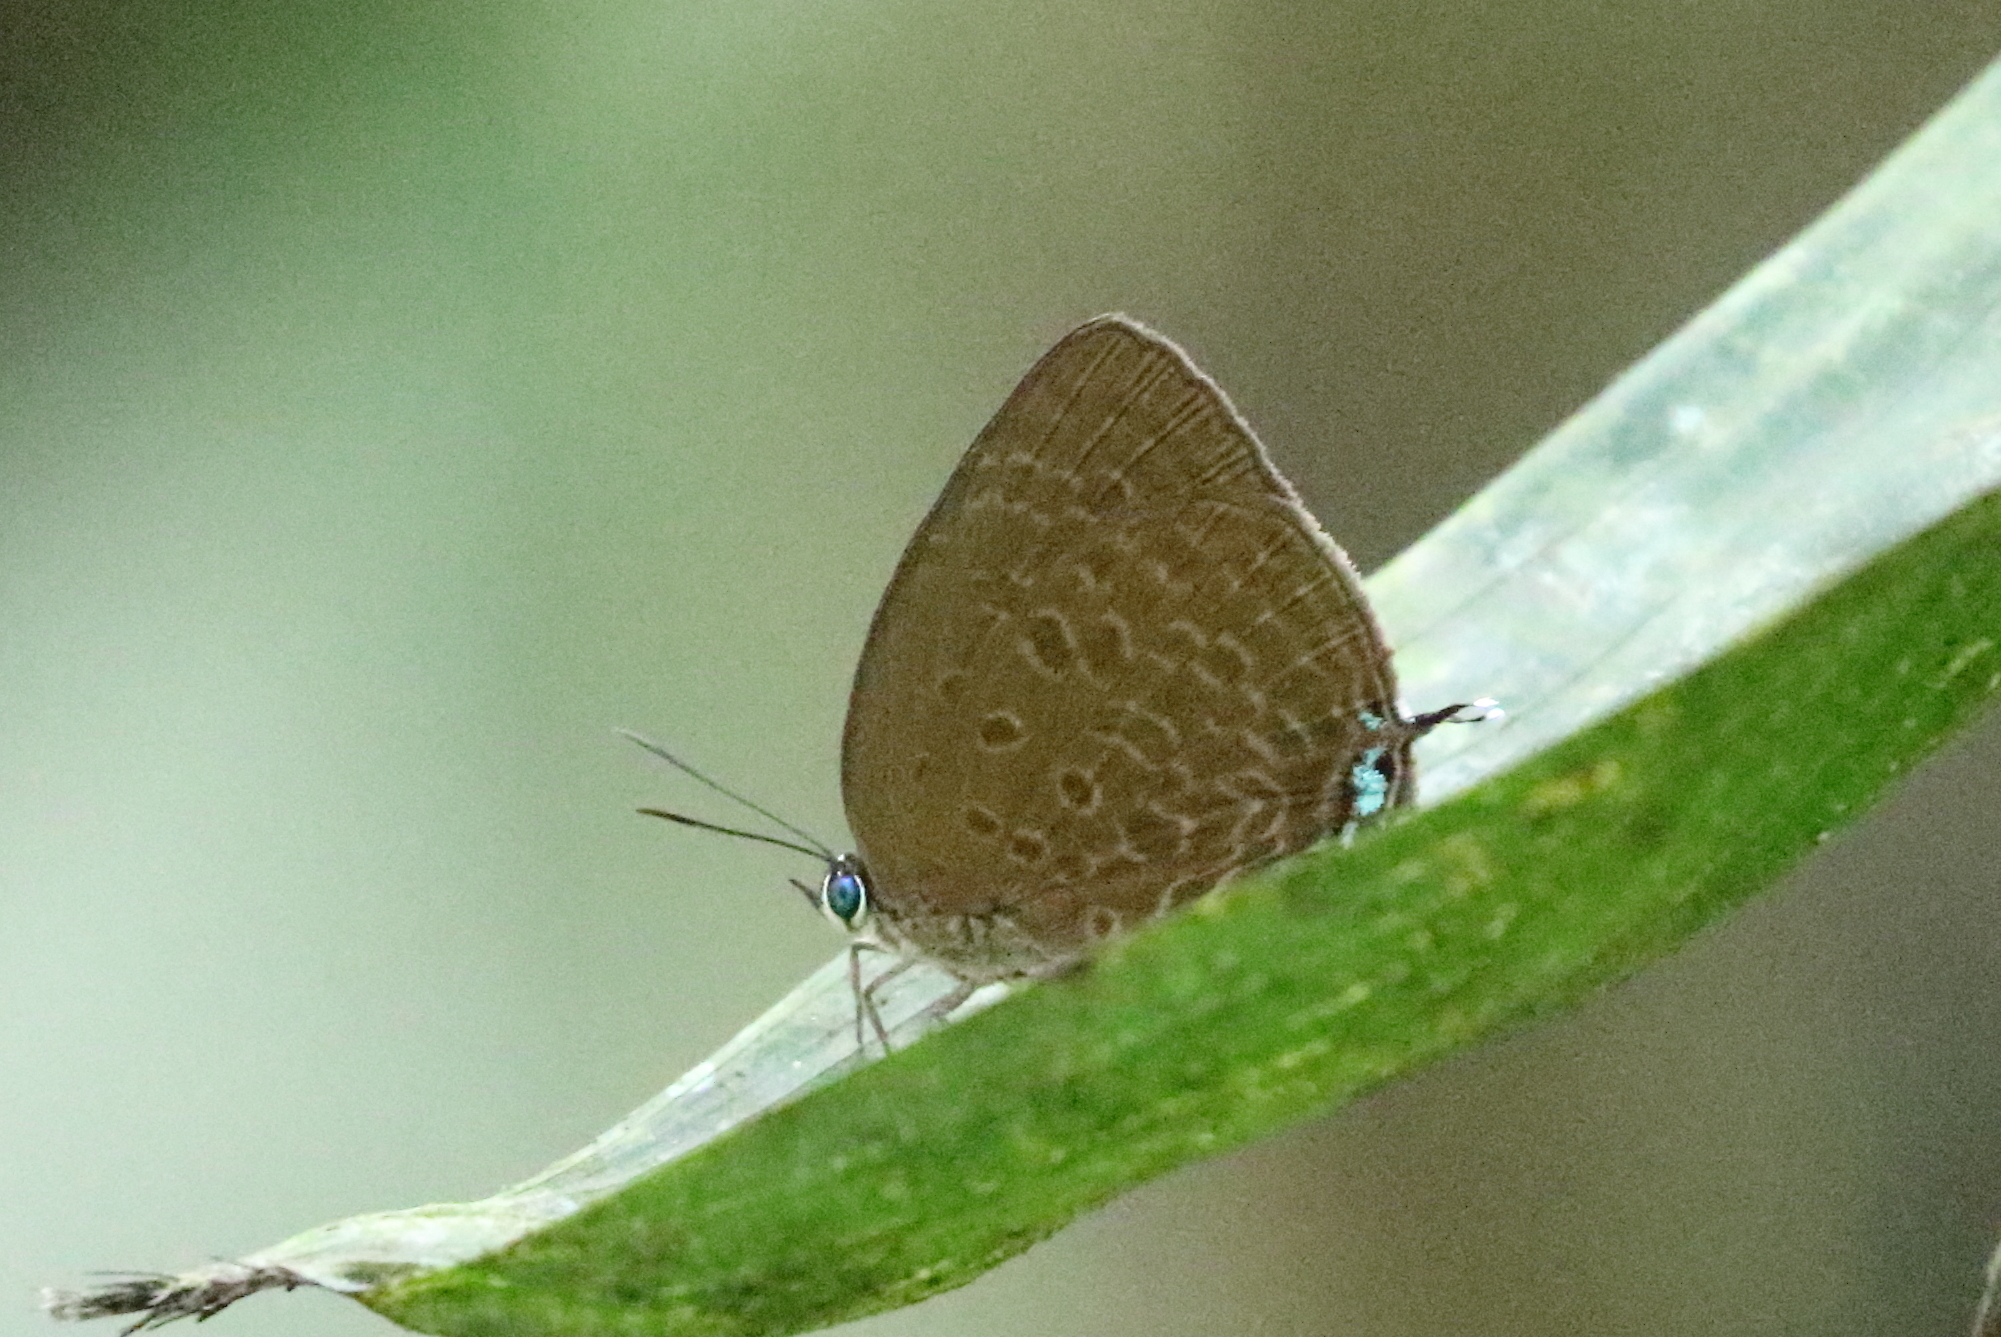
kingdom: Animalia
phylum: Arthropoda
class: Insecta
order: Lepidoptera
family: Lycaenidae
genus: Arhopala
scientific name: Arhopala atosia
